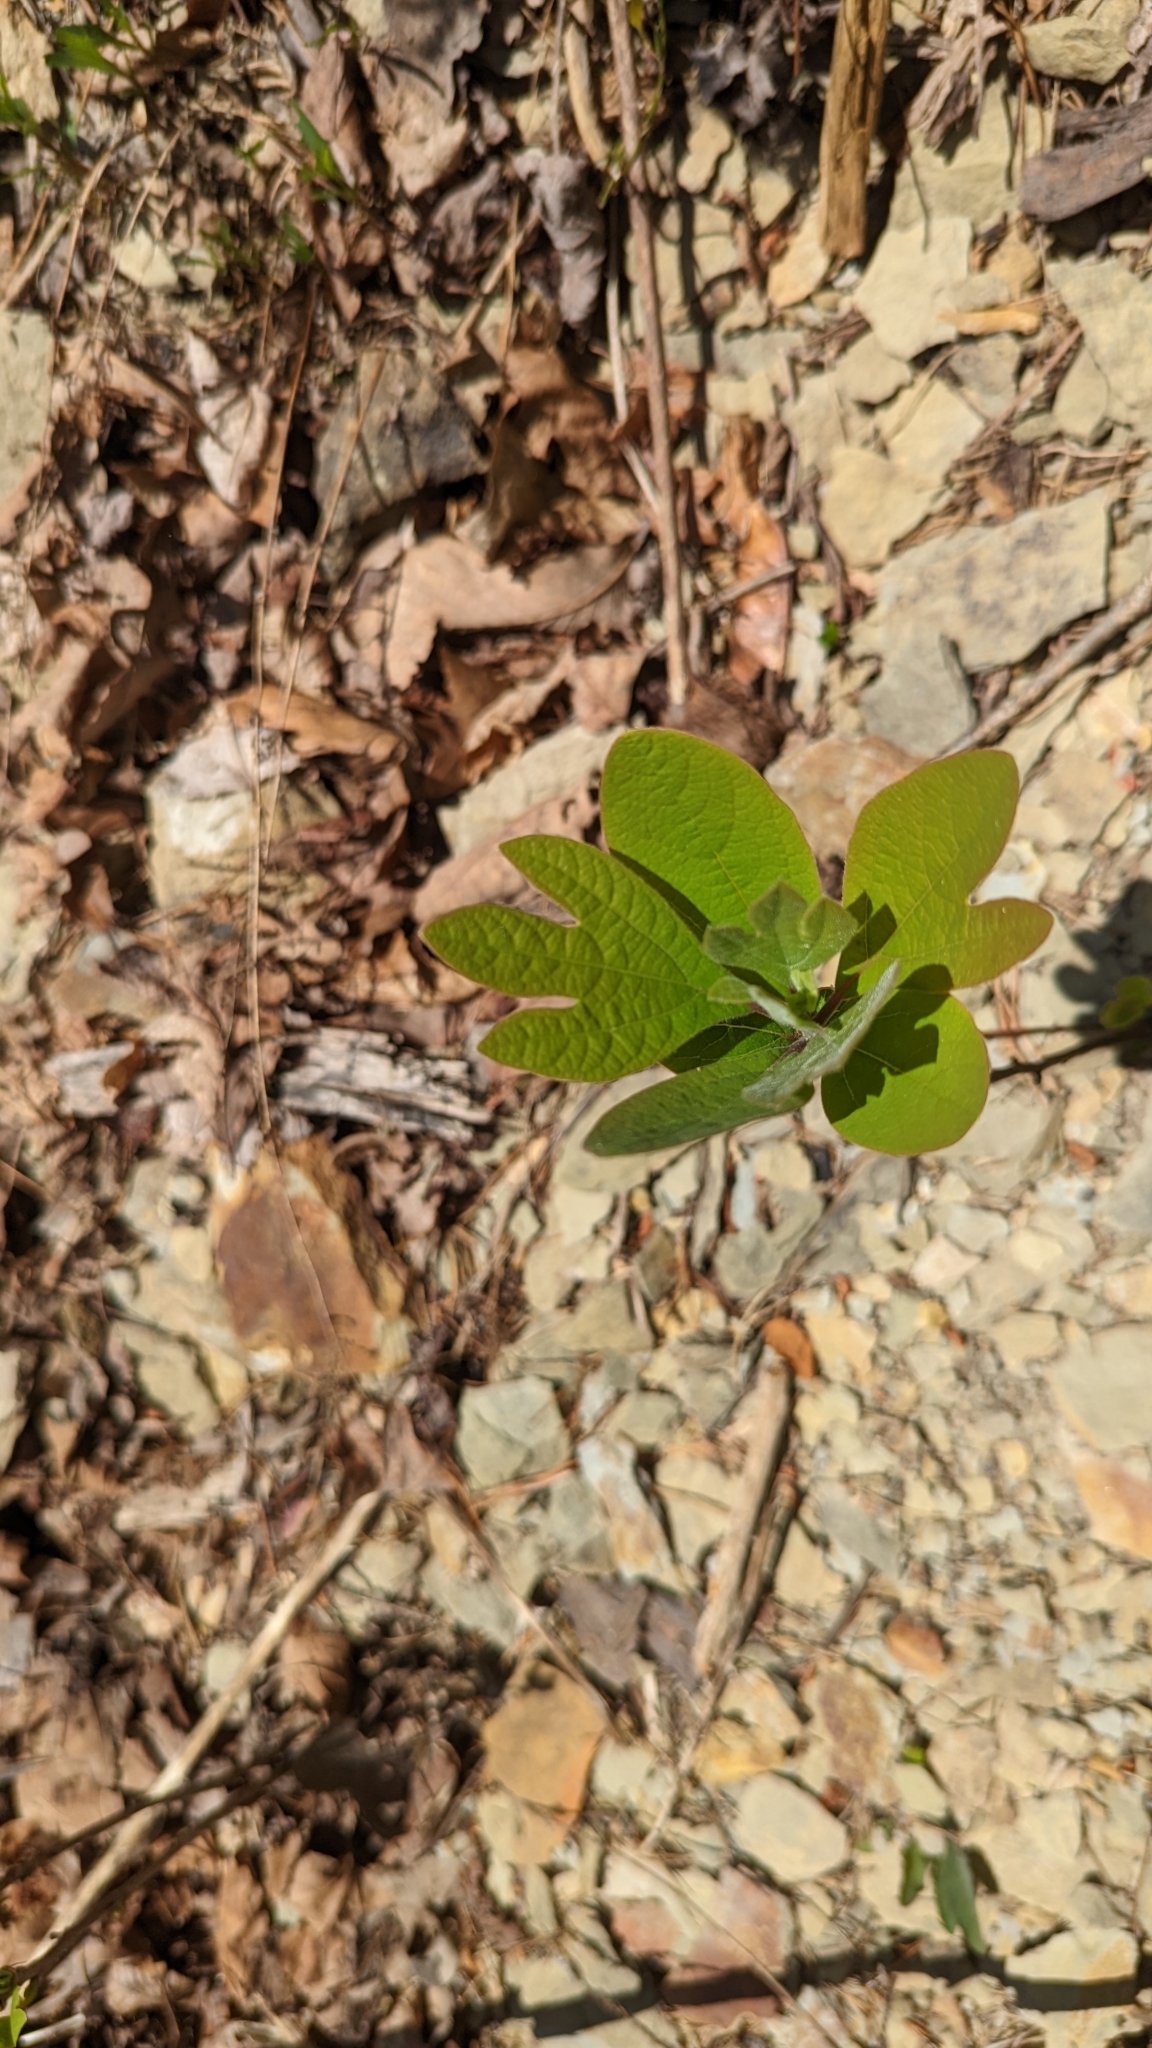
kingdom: Plantae
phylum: Tracheophyta
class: Magnoliopsida
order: Laurales
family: Lauraceae
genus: Sassafras
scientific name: Sassafras albidum
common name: Sassafras
